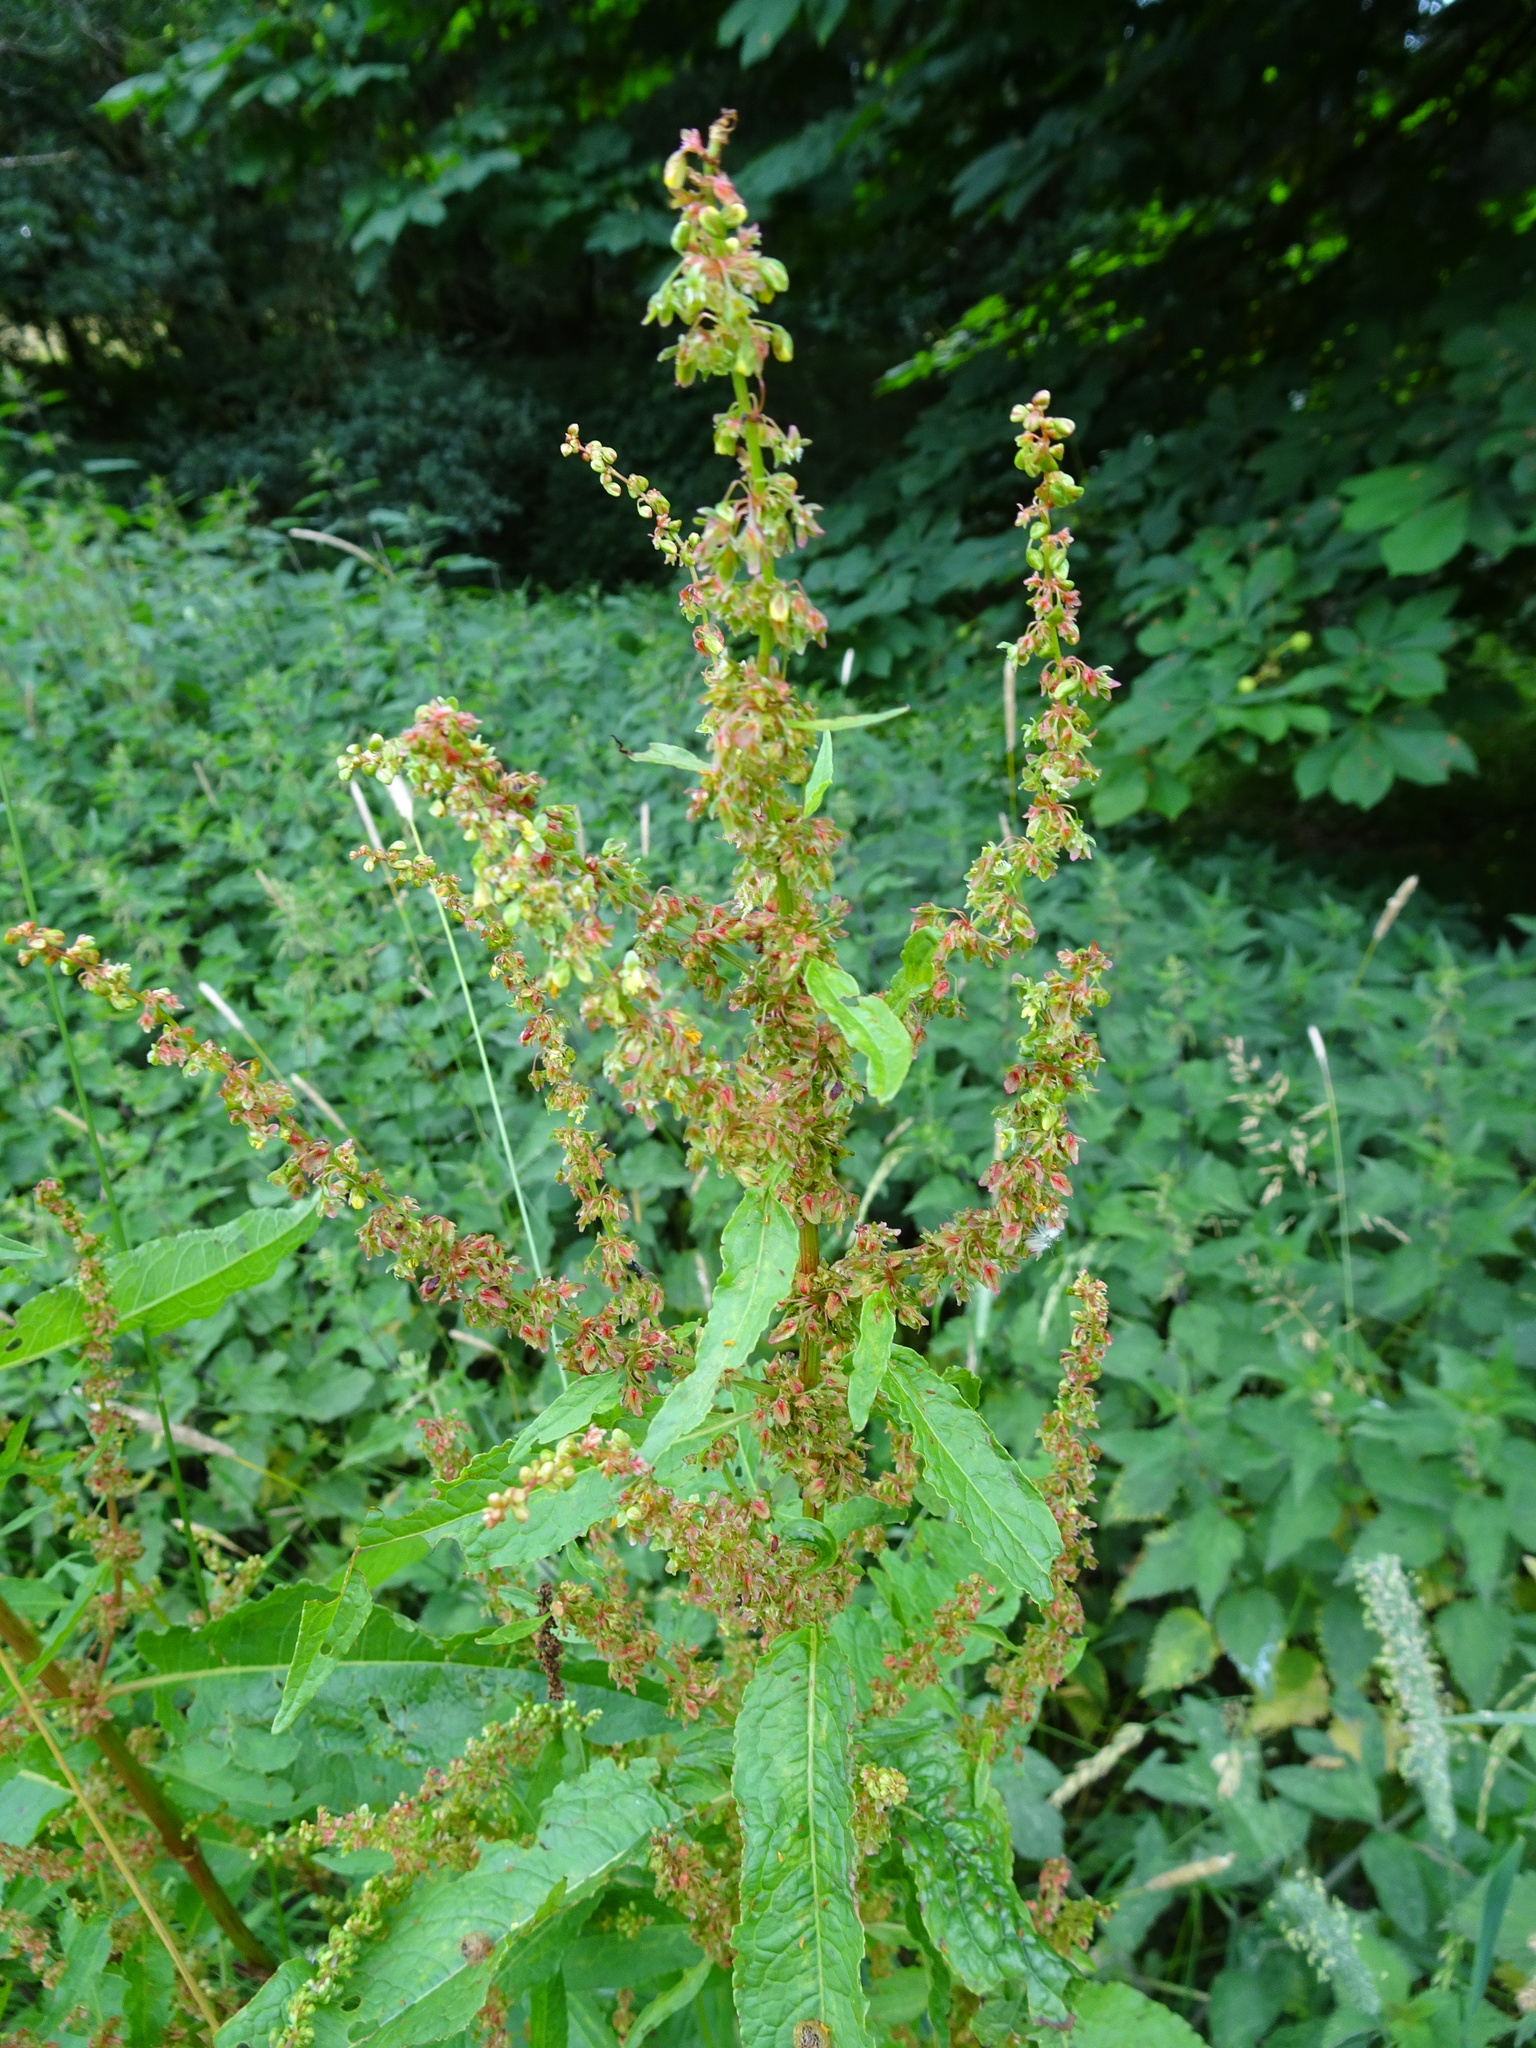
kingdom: Plantae
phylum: Tracheophyta
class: Magnoliopsida
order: Caryophyllales
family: Polygonaceae
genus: Rumex
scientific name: Rumex obtusifolius
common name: Bitter dock
